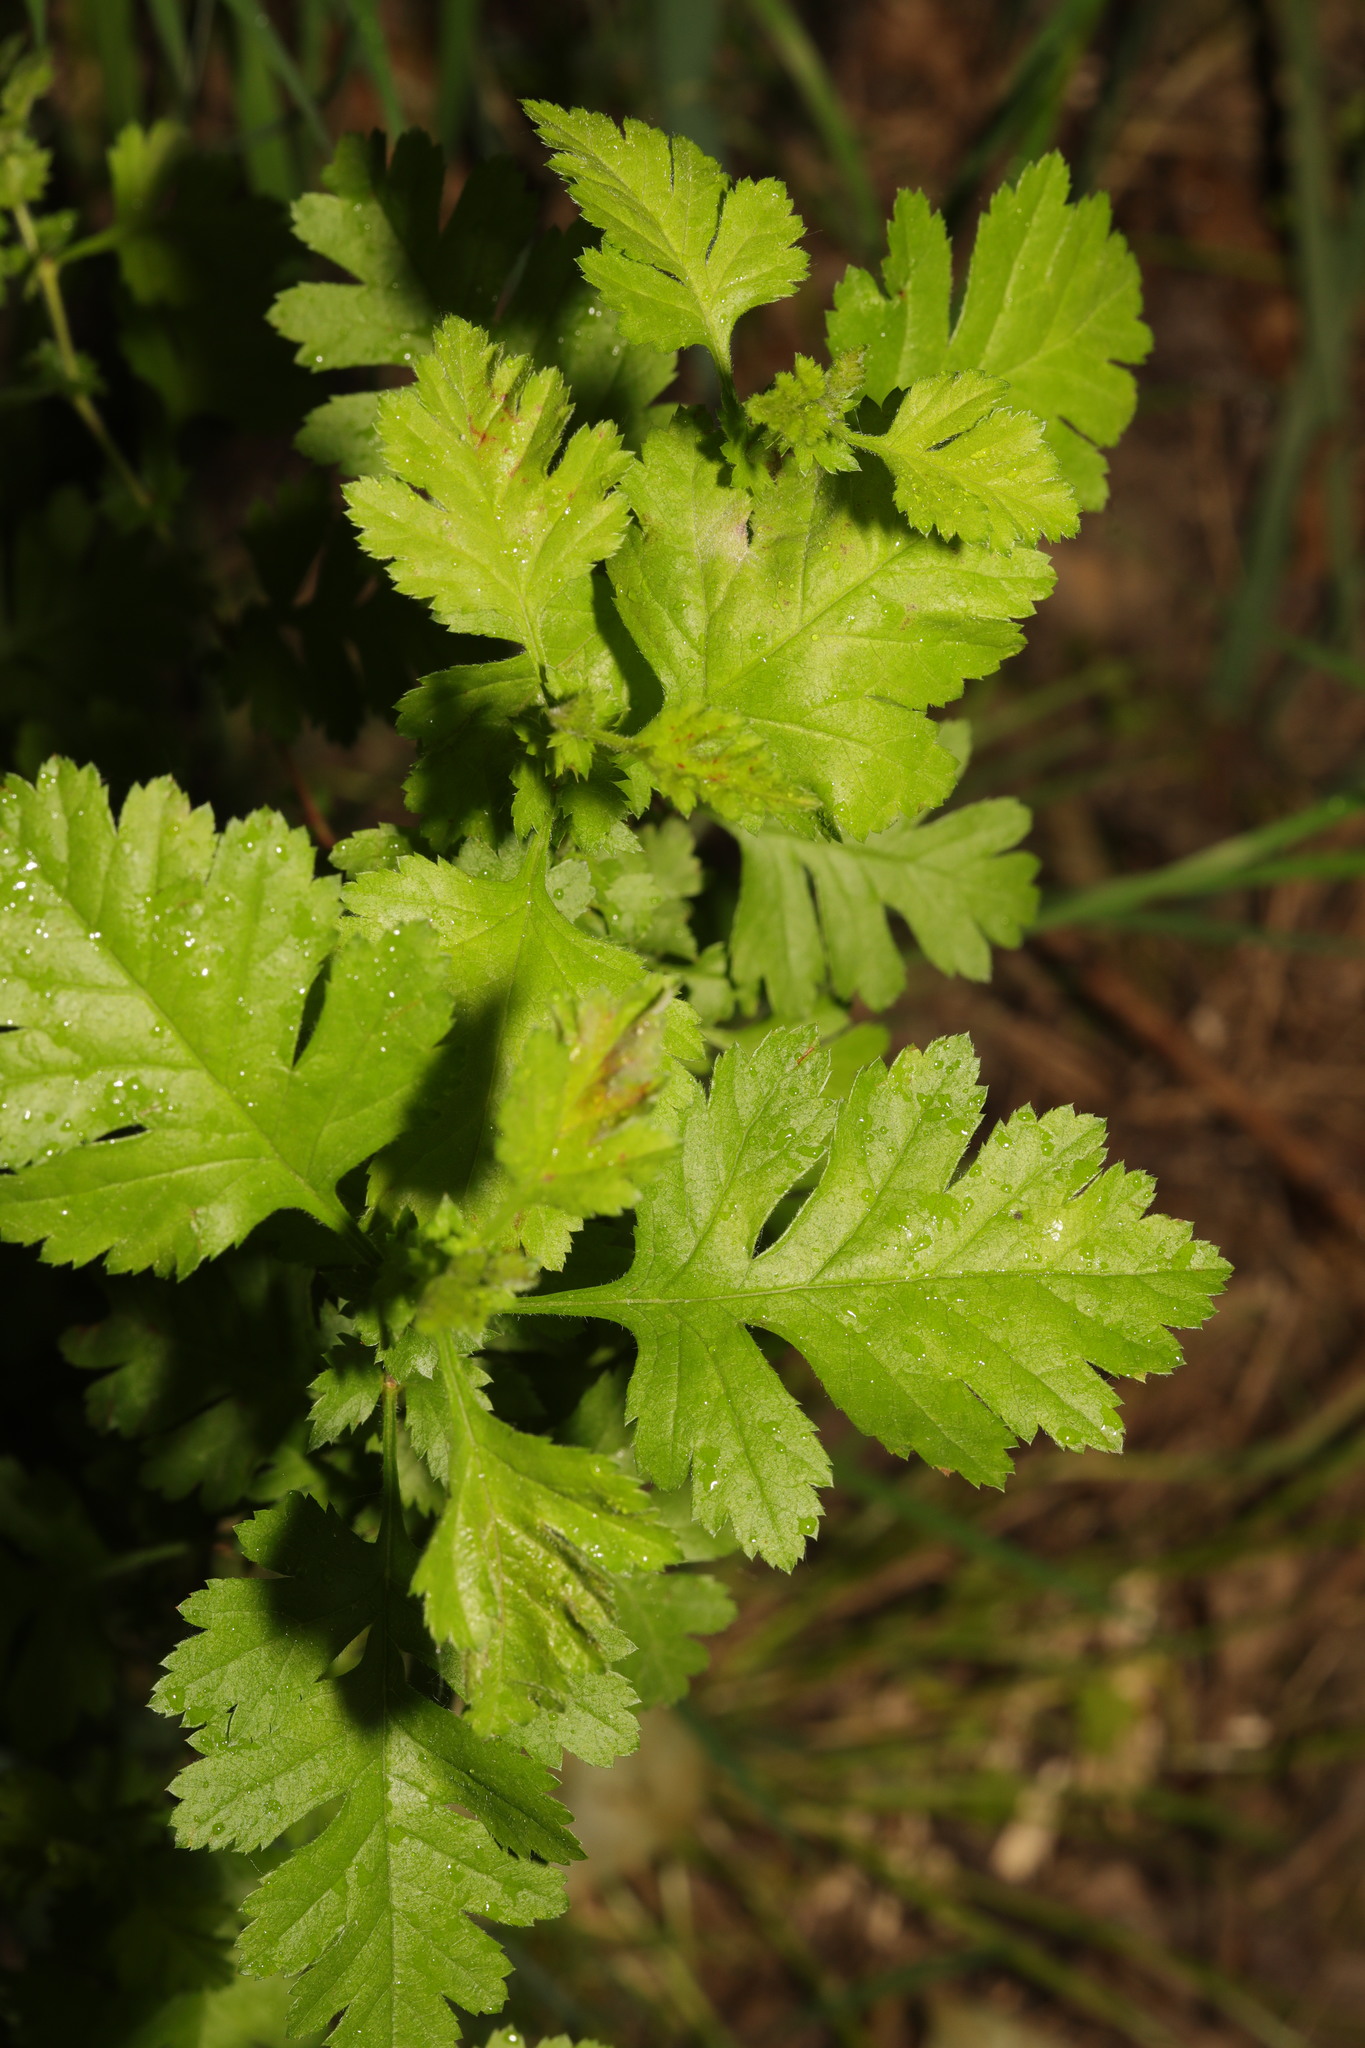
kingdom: Plantae
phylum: Tracheophyta
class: Magnoliopsida
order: Rosales
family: Rosaceae
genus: Crataegus
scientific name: Crataegus monogyna
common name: Hawthorn
